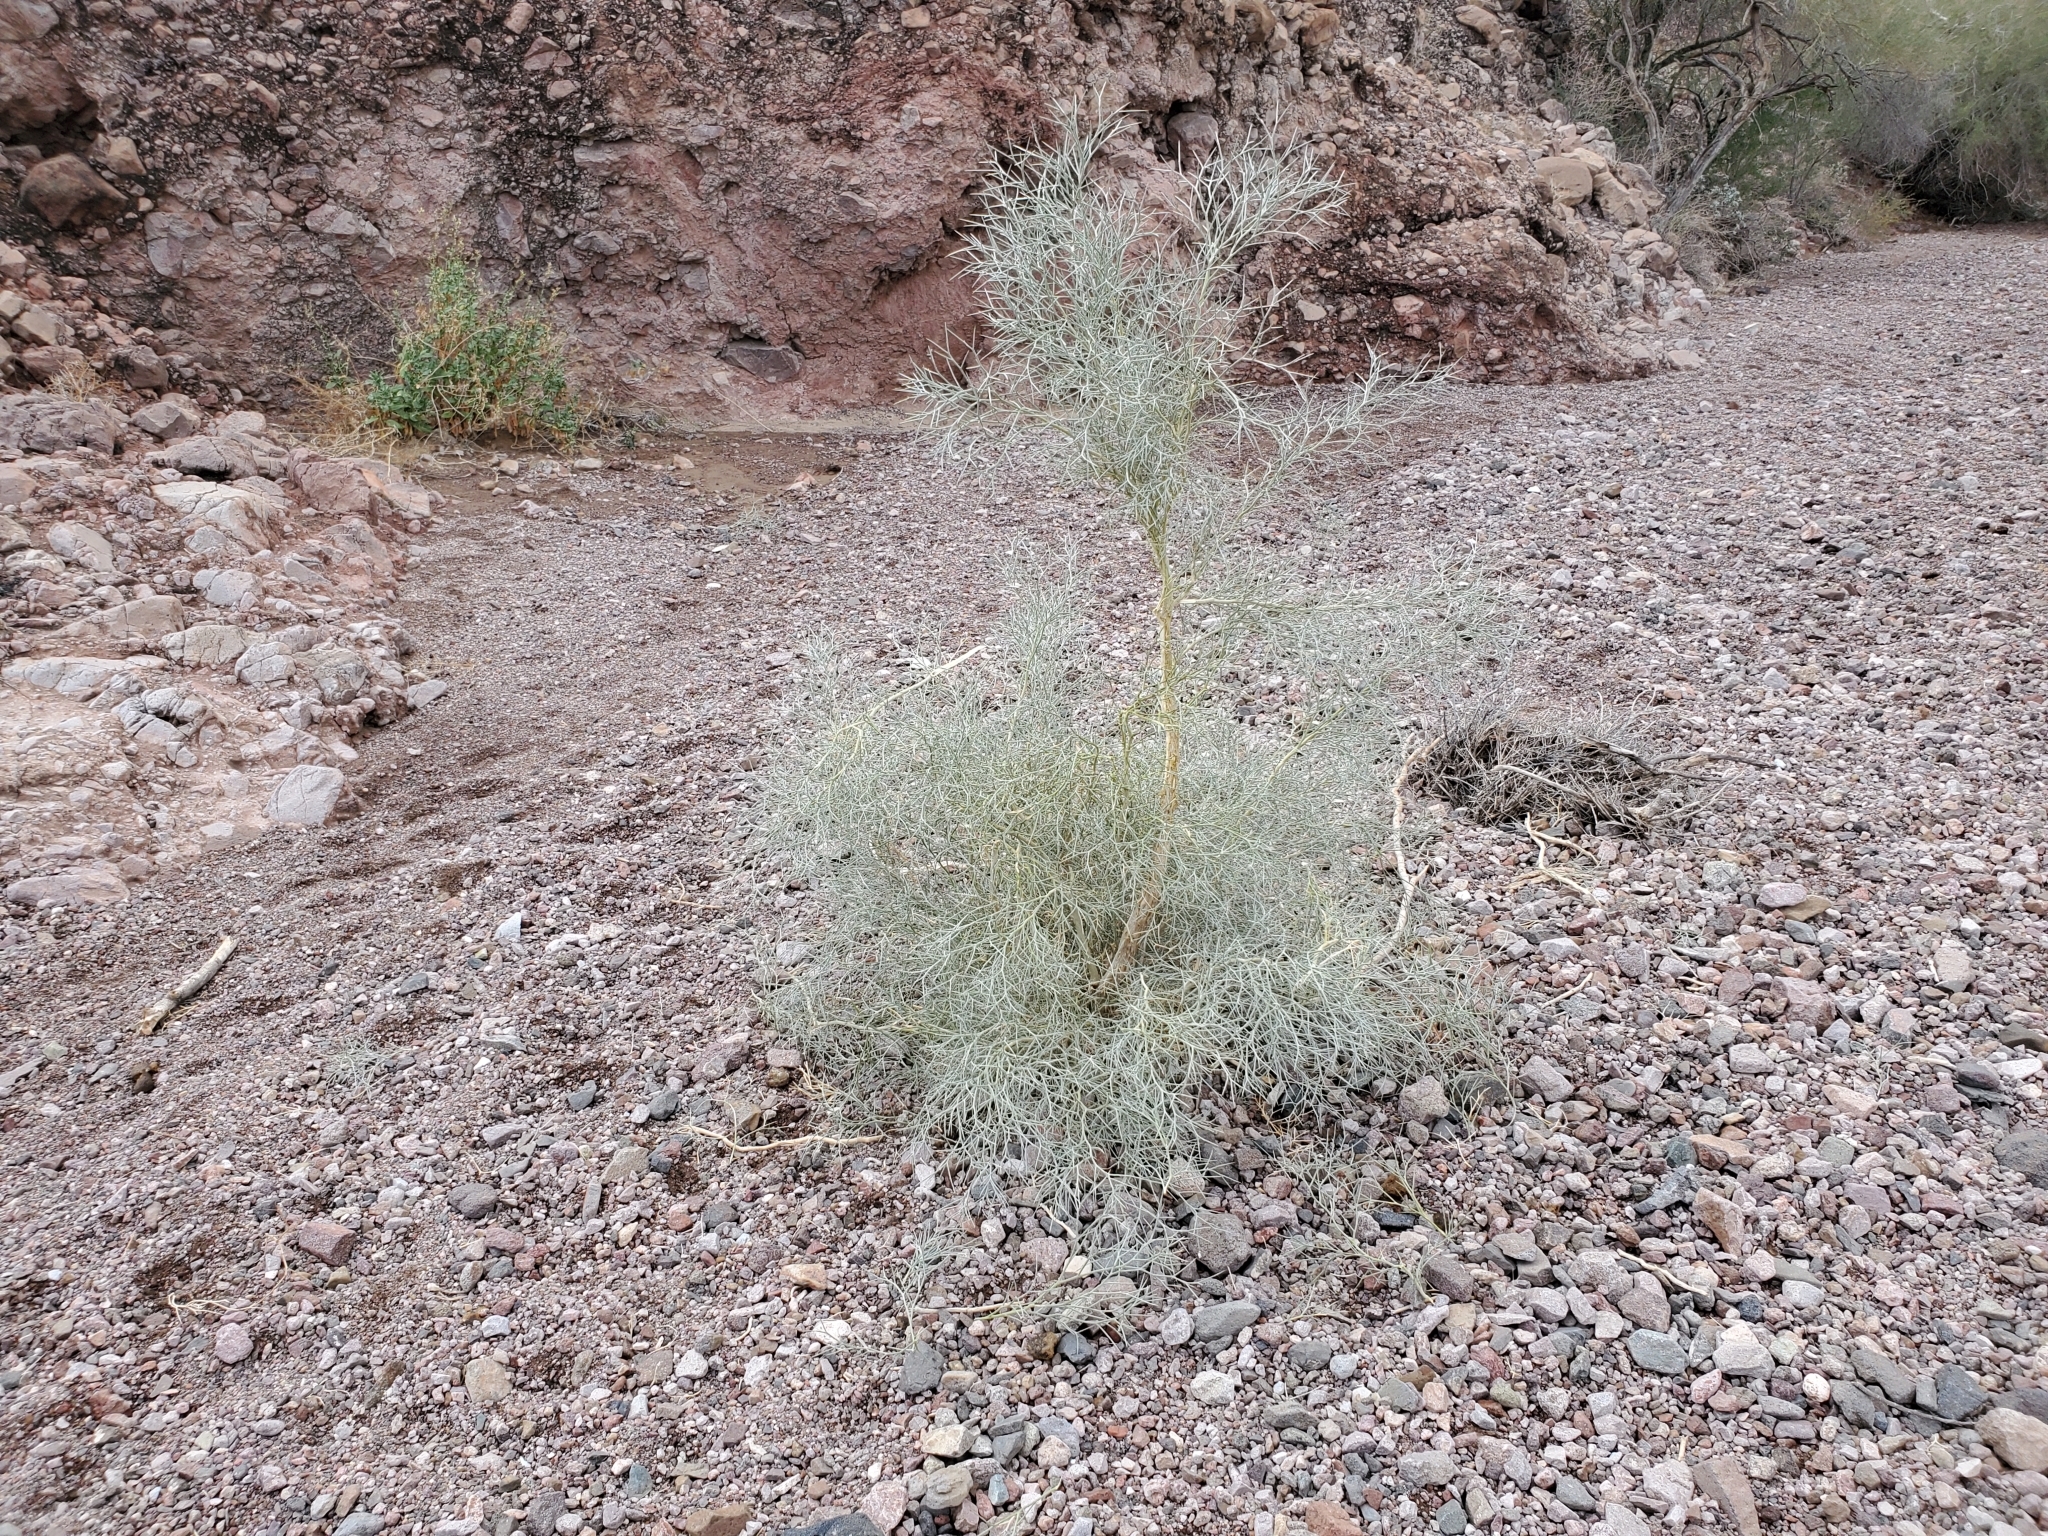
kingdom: Plantae
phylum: Tracheophyta
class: Magnoliopsida
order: Fabales
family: Fabaceae
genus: Psorothamnus
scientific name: Psorothamnus spinosus
